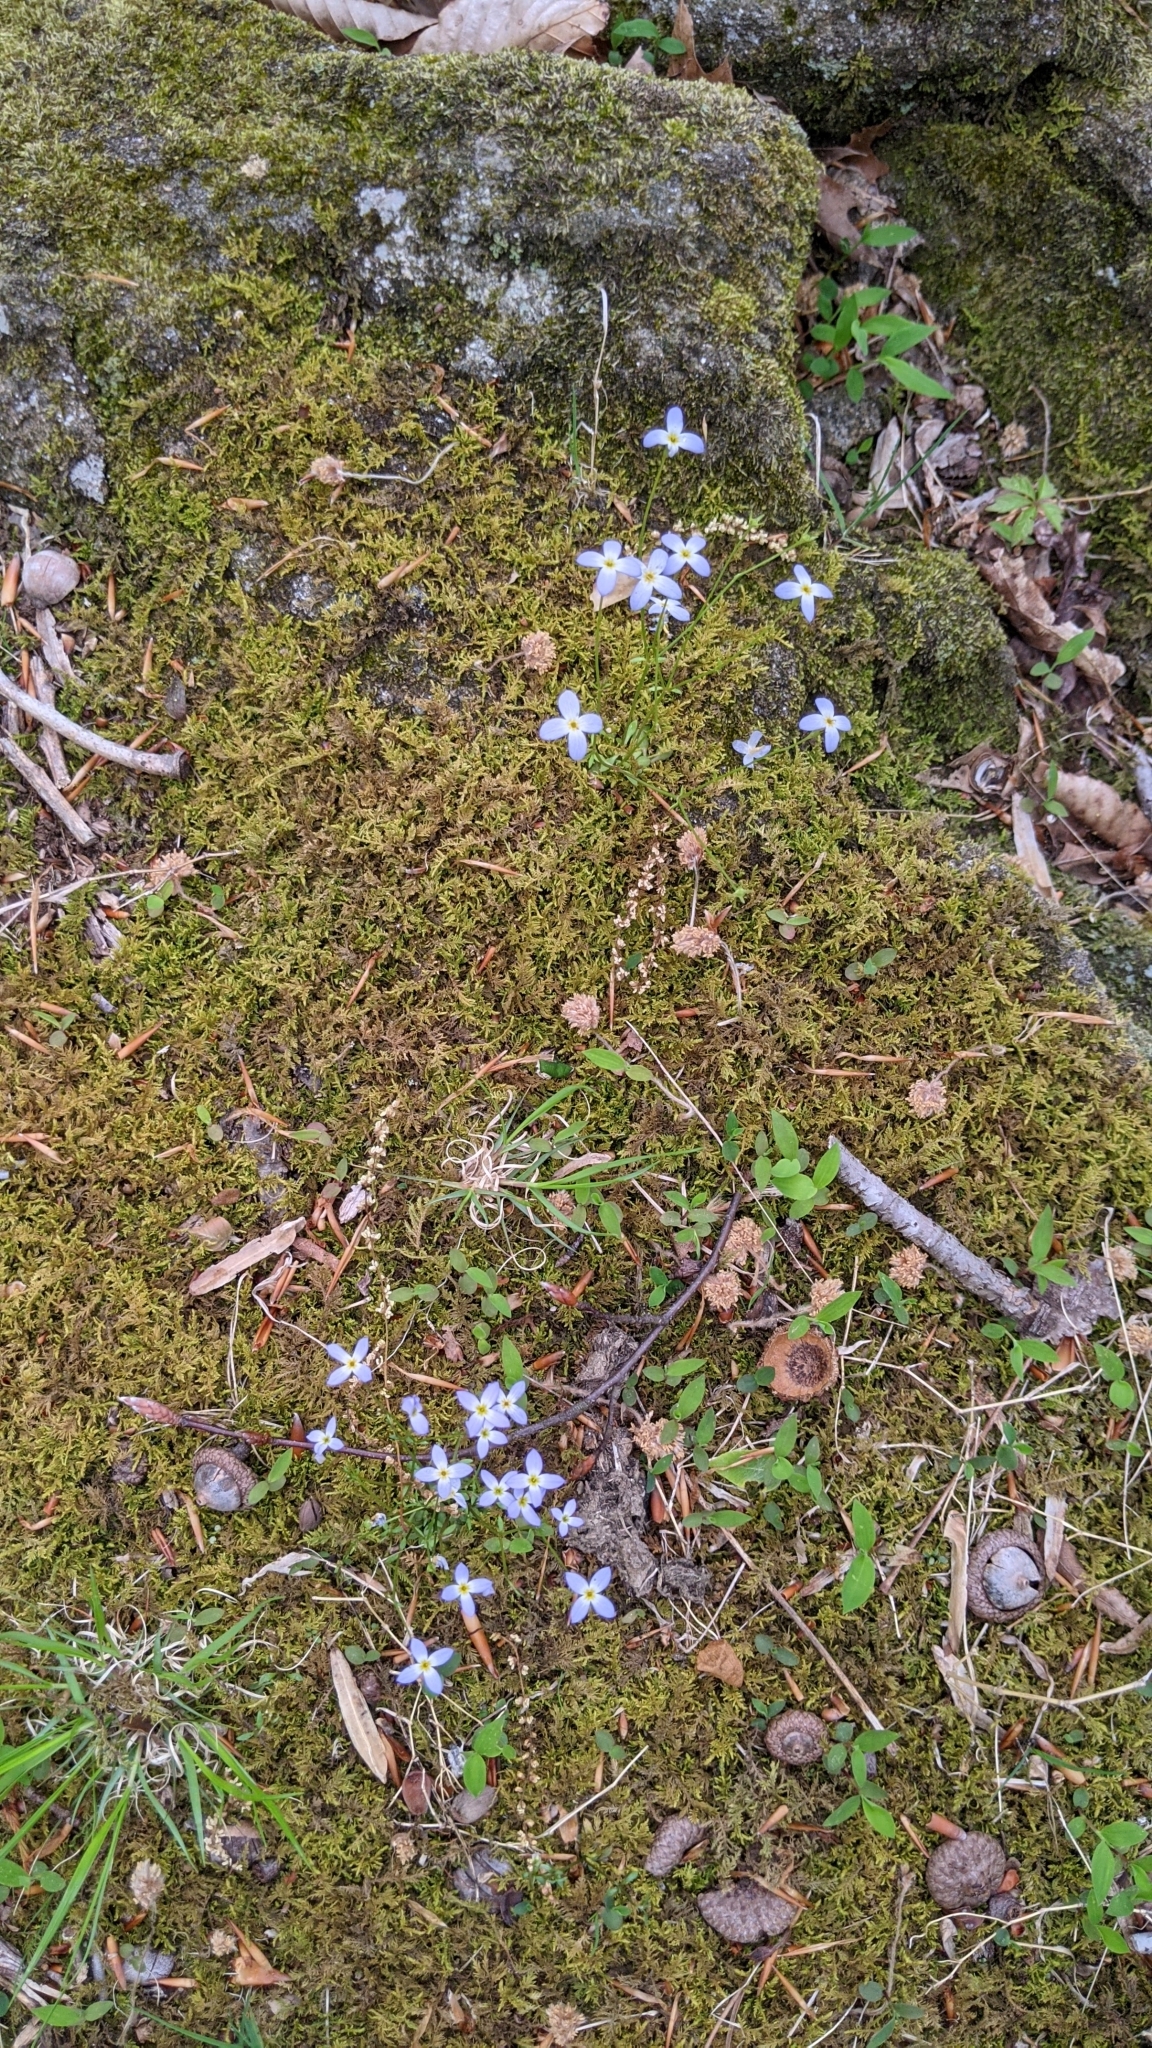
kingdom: Plantae
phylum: Tracheophyta
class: Magnoliopsida
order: Gentianales
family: Rubiaceae
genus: Houstonia
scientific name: Houstonia caerulea
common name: Bluets
